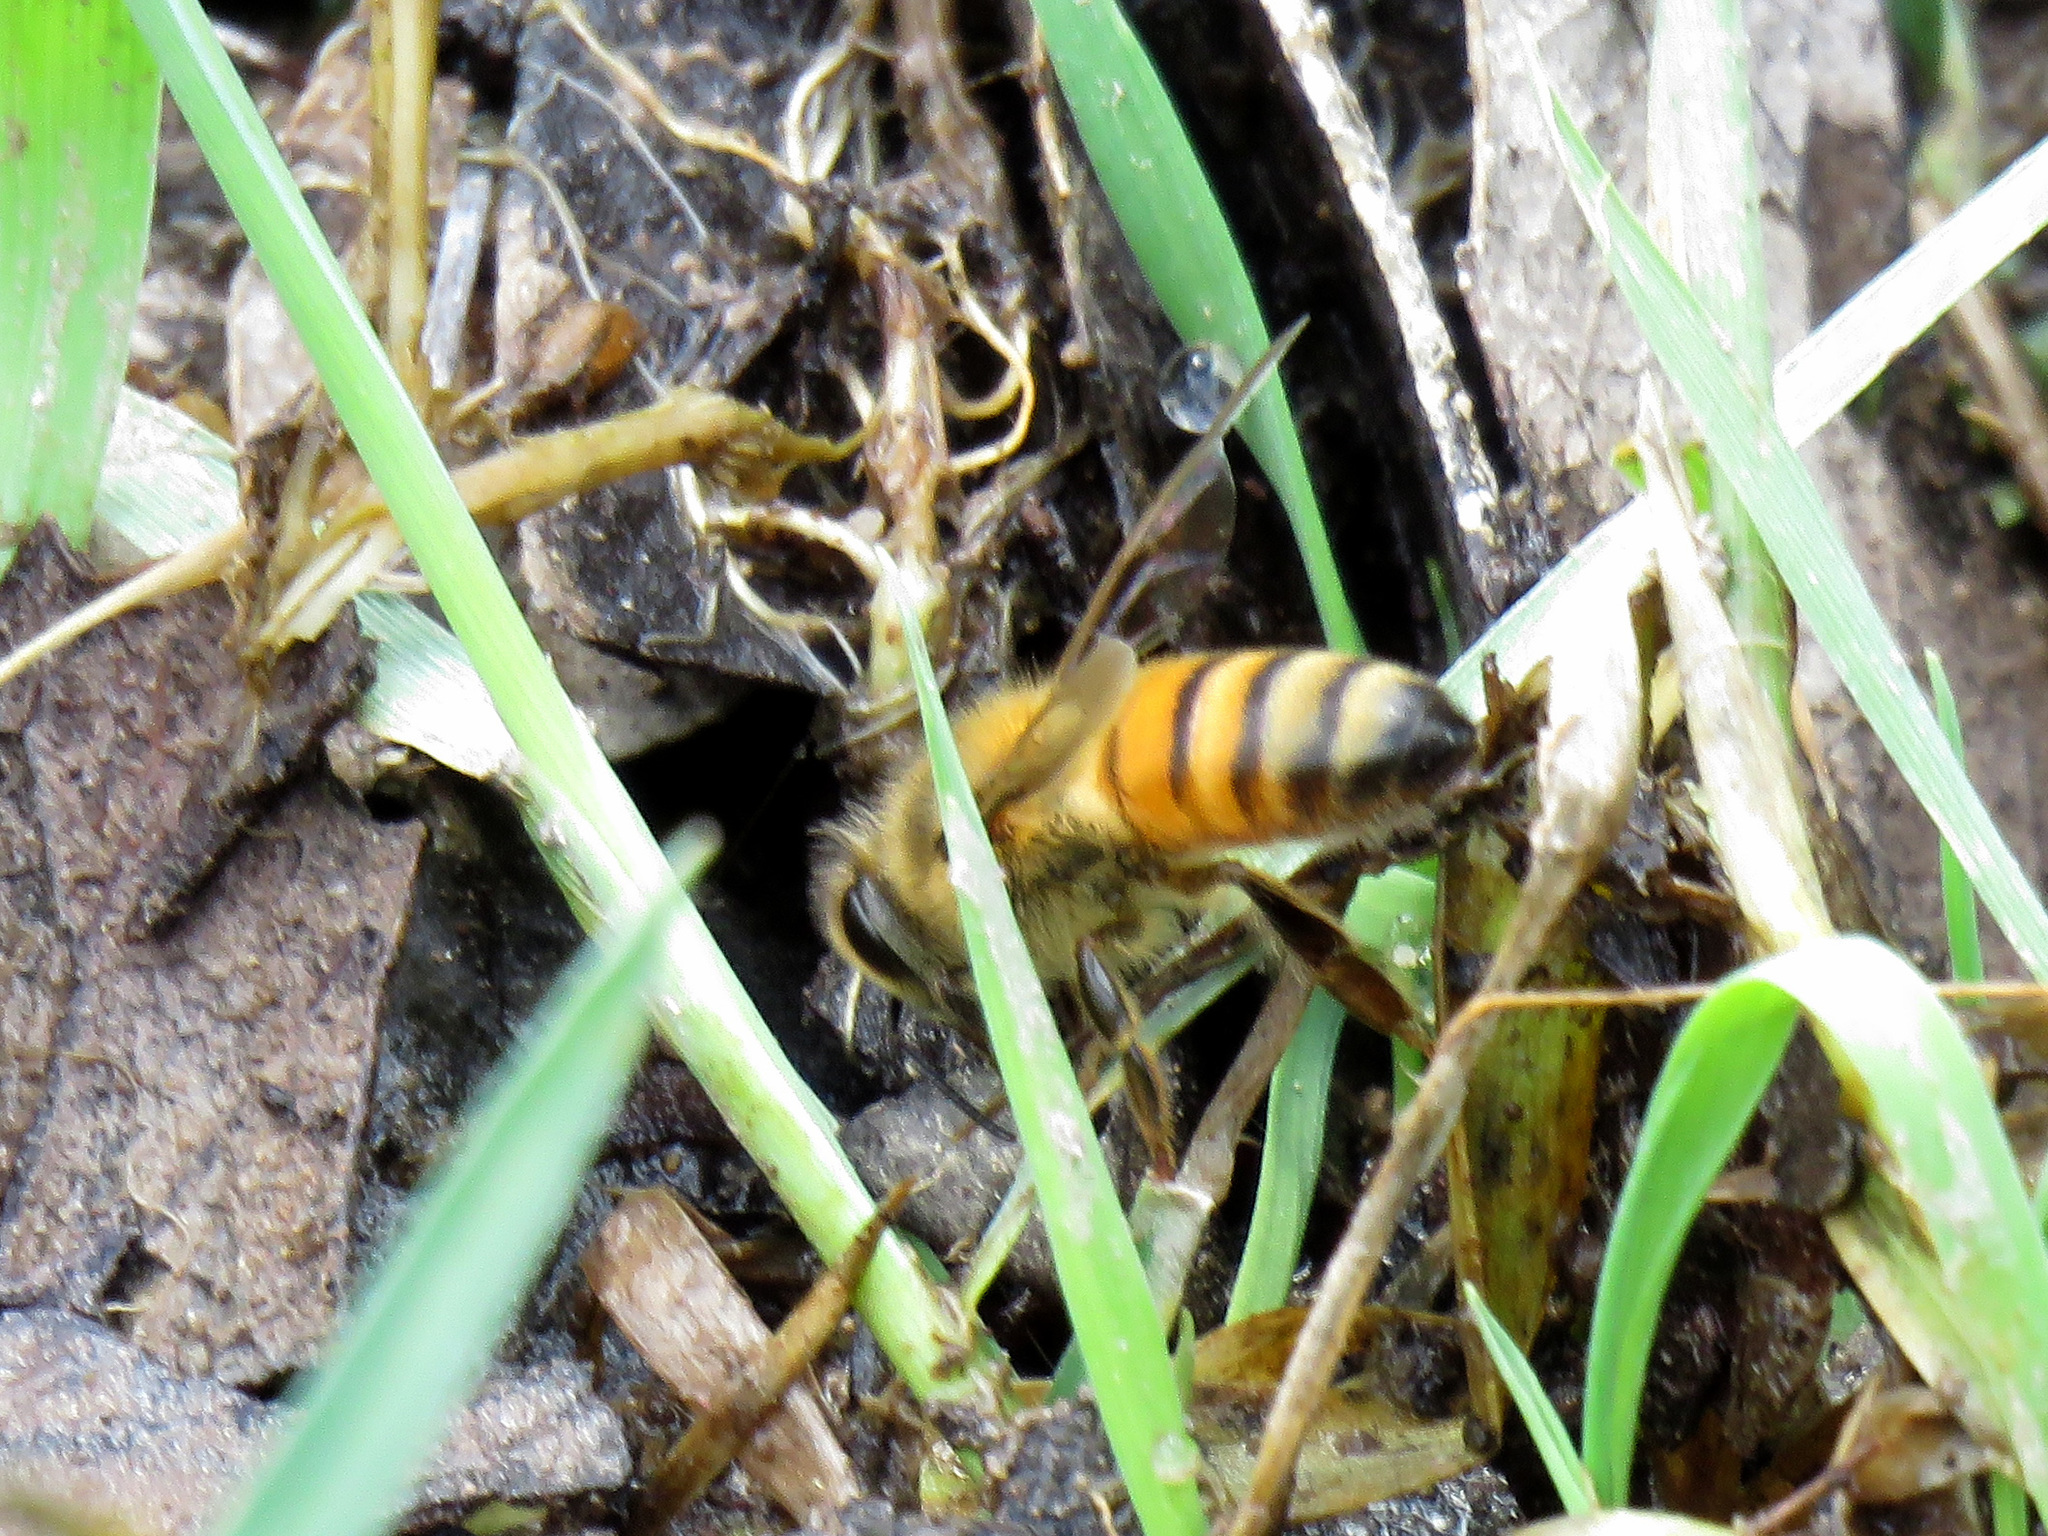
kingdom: Animalia
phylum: Arthropoda
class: Insecta
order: Hymenoptera
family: Apidae
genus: Apis
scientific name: Apis mellifera
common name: Honey bee
